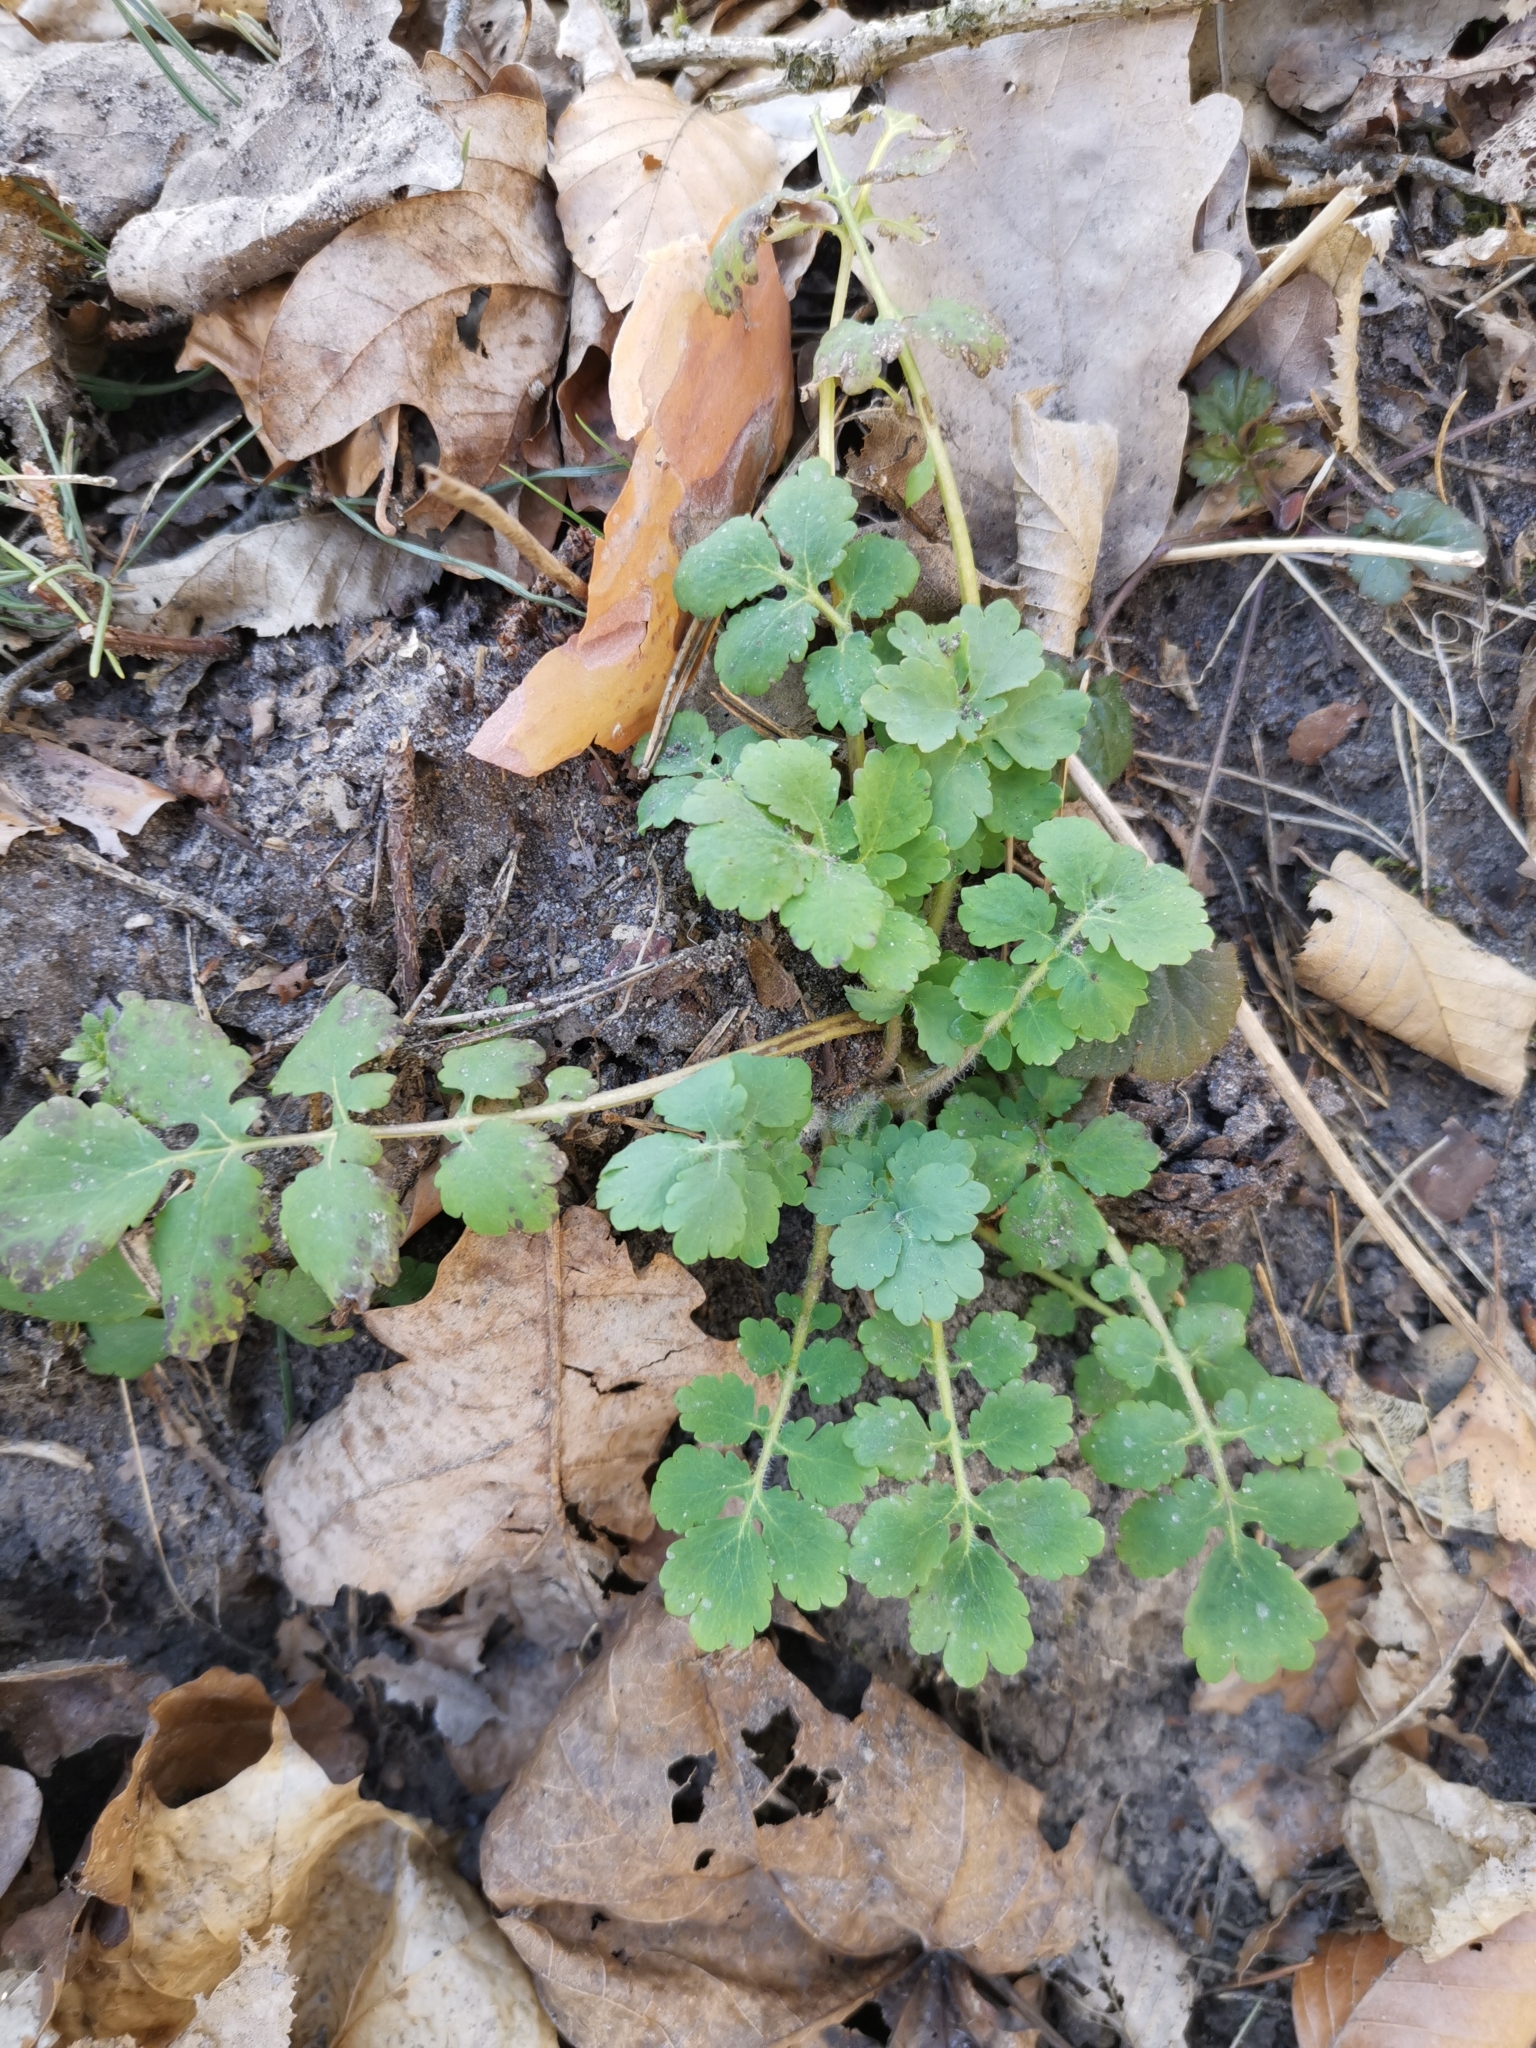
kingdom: Plantae
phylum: Tracheophyta
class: Magnoliopsida
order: Ranunculales
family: Papaveraceae
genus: Chelidonium
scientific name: Chelidonium majus
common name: Greater celandine
